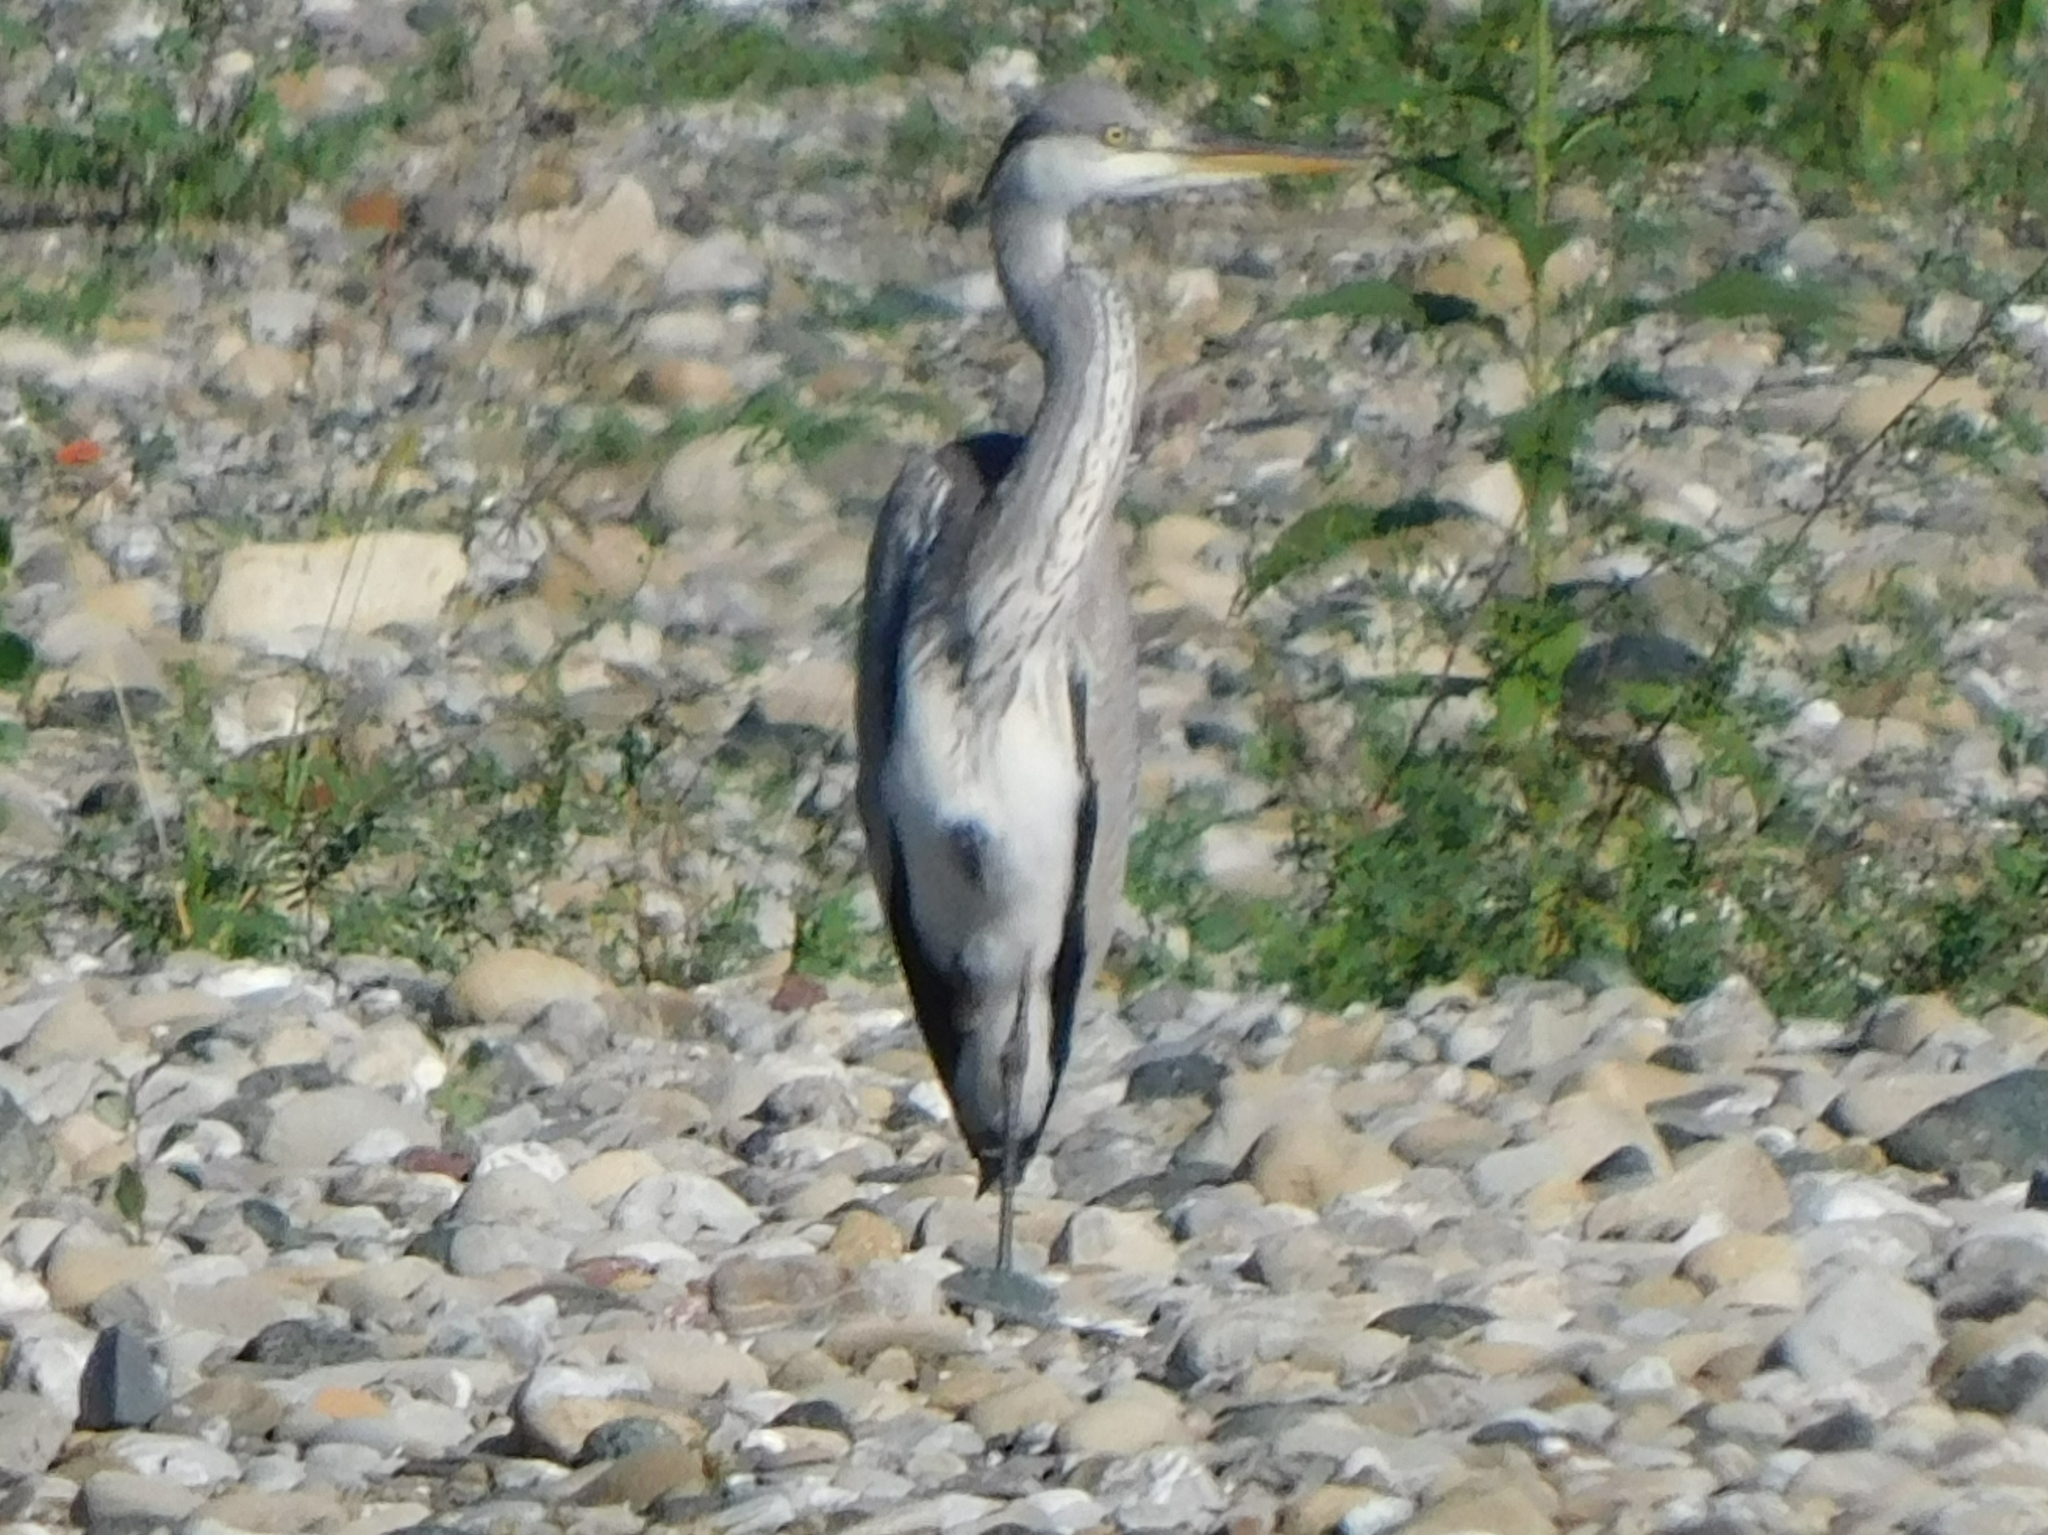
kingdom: Animalia
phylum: Chordata
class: Aves
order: Pelecaniformes
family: Ardeidae
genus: Ardea
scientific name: Ardea cinerea
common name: Grey heron
